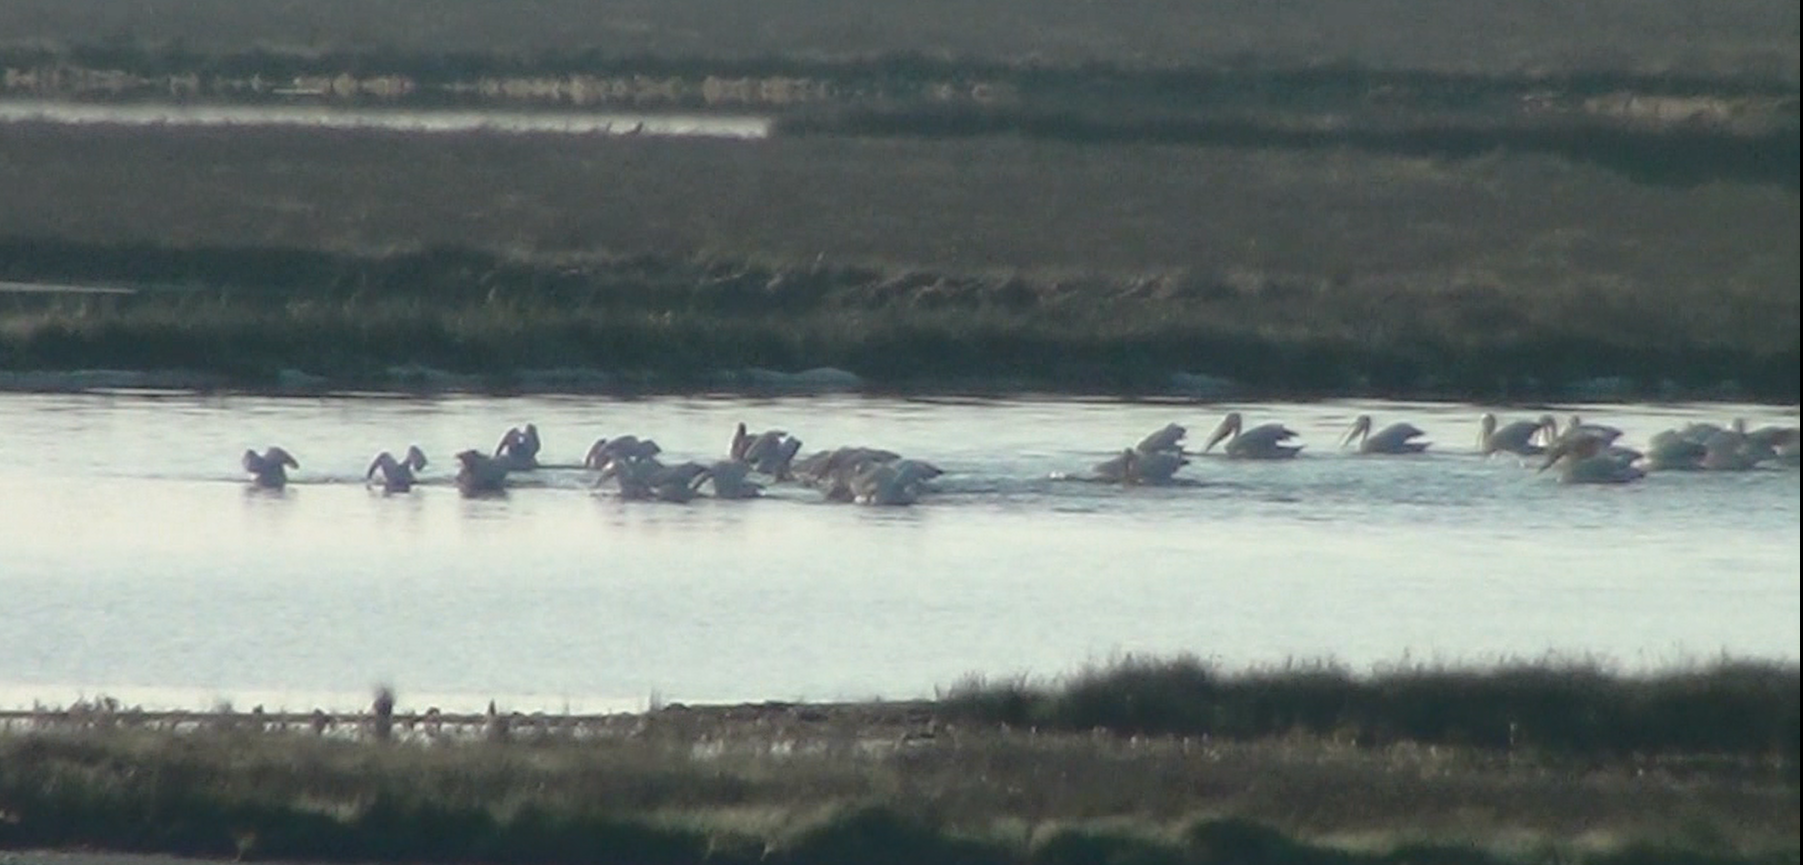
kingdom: Animalia
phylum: Chordata
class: Aves
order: Pelecaniformes
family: Pelecanidae
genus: Pelecanus
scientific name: Pelecanus onocrotalus
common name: Great white pelican
